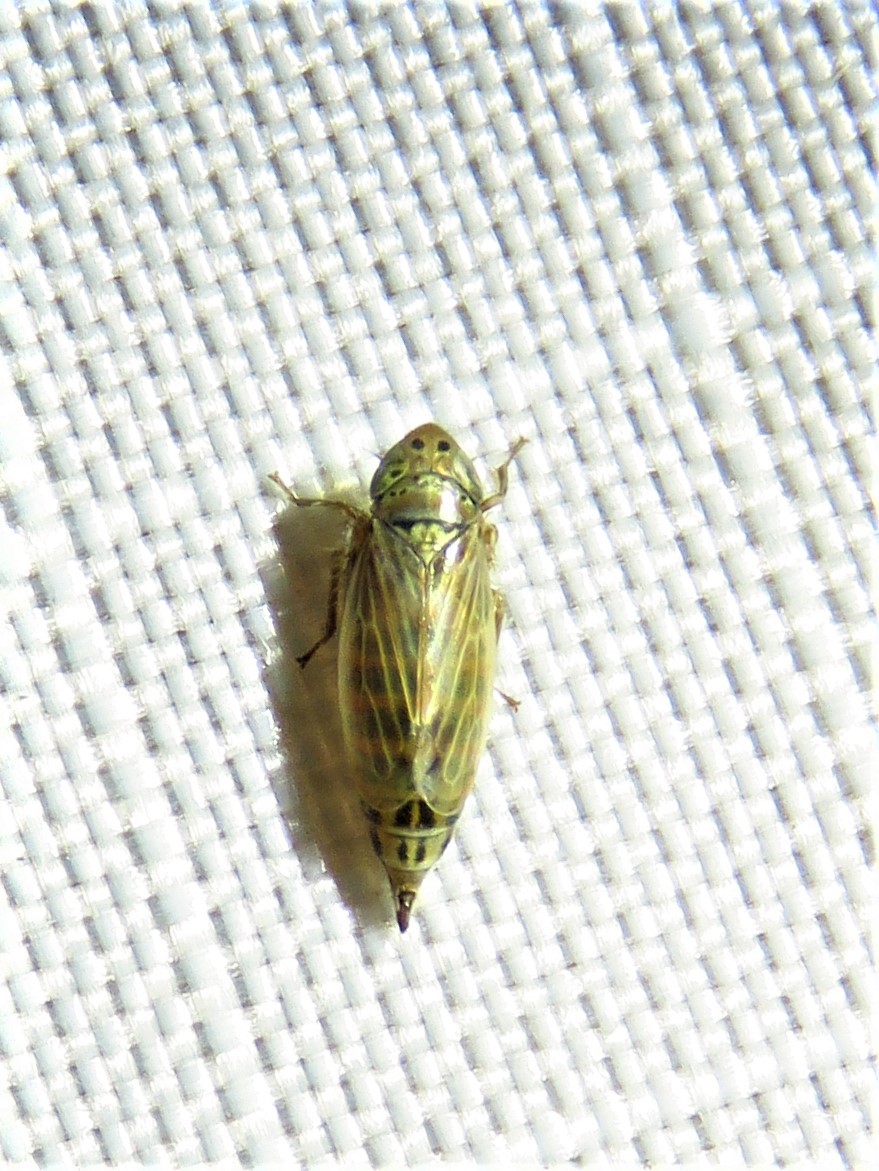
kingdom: Animalia
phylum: Arthropoda
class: Insecta
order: Hemiptera
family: Cicadellidae
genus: Stirellus
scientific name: Stirellus bicolor
